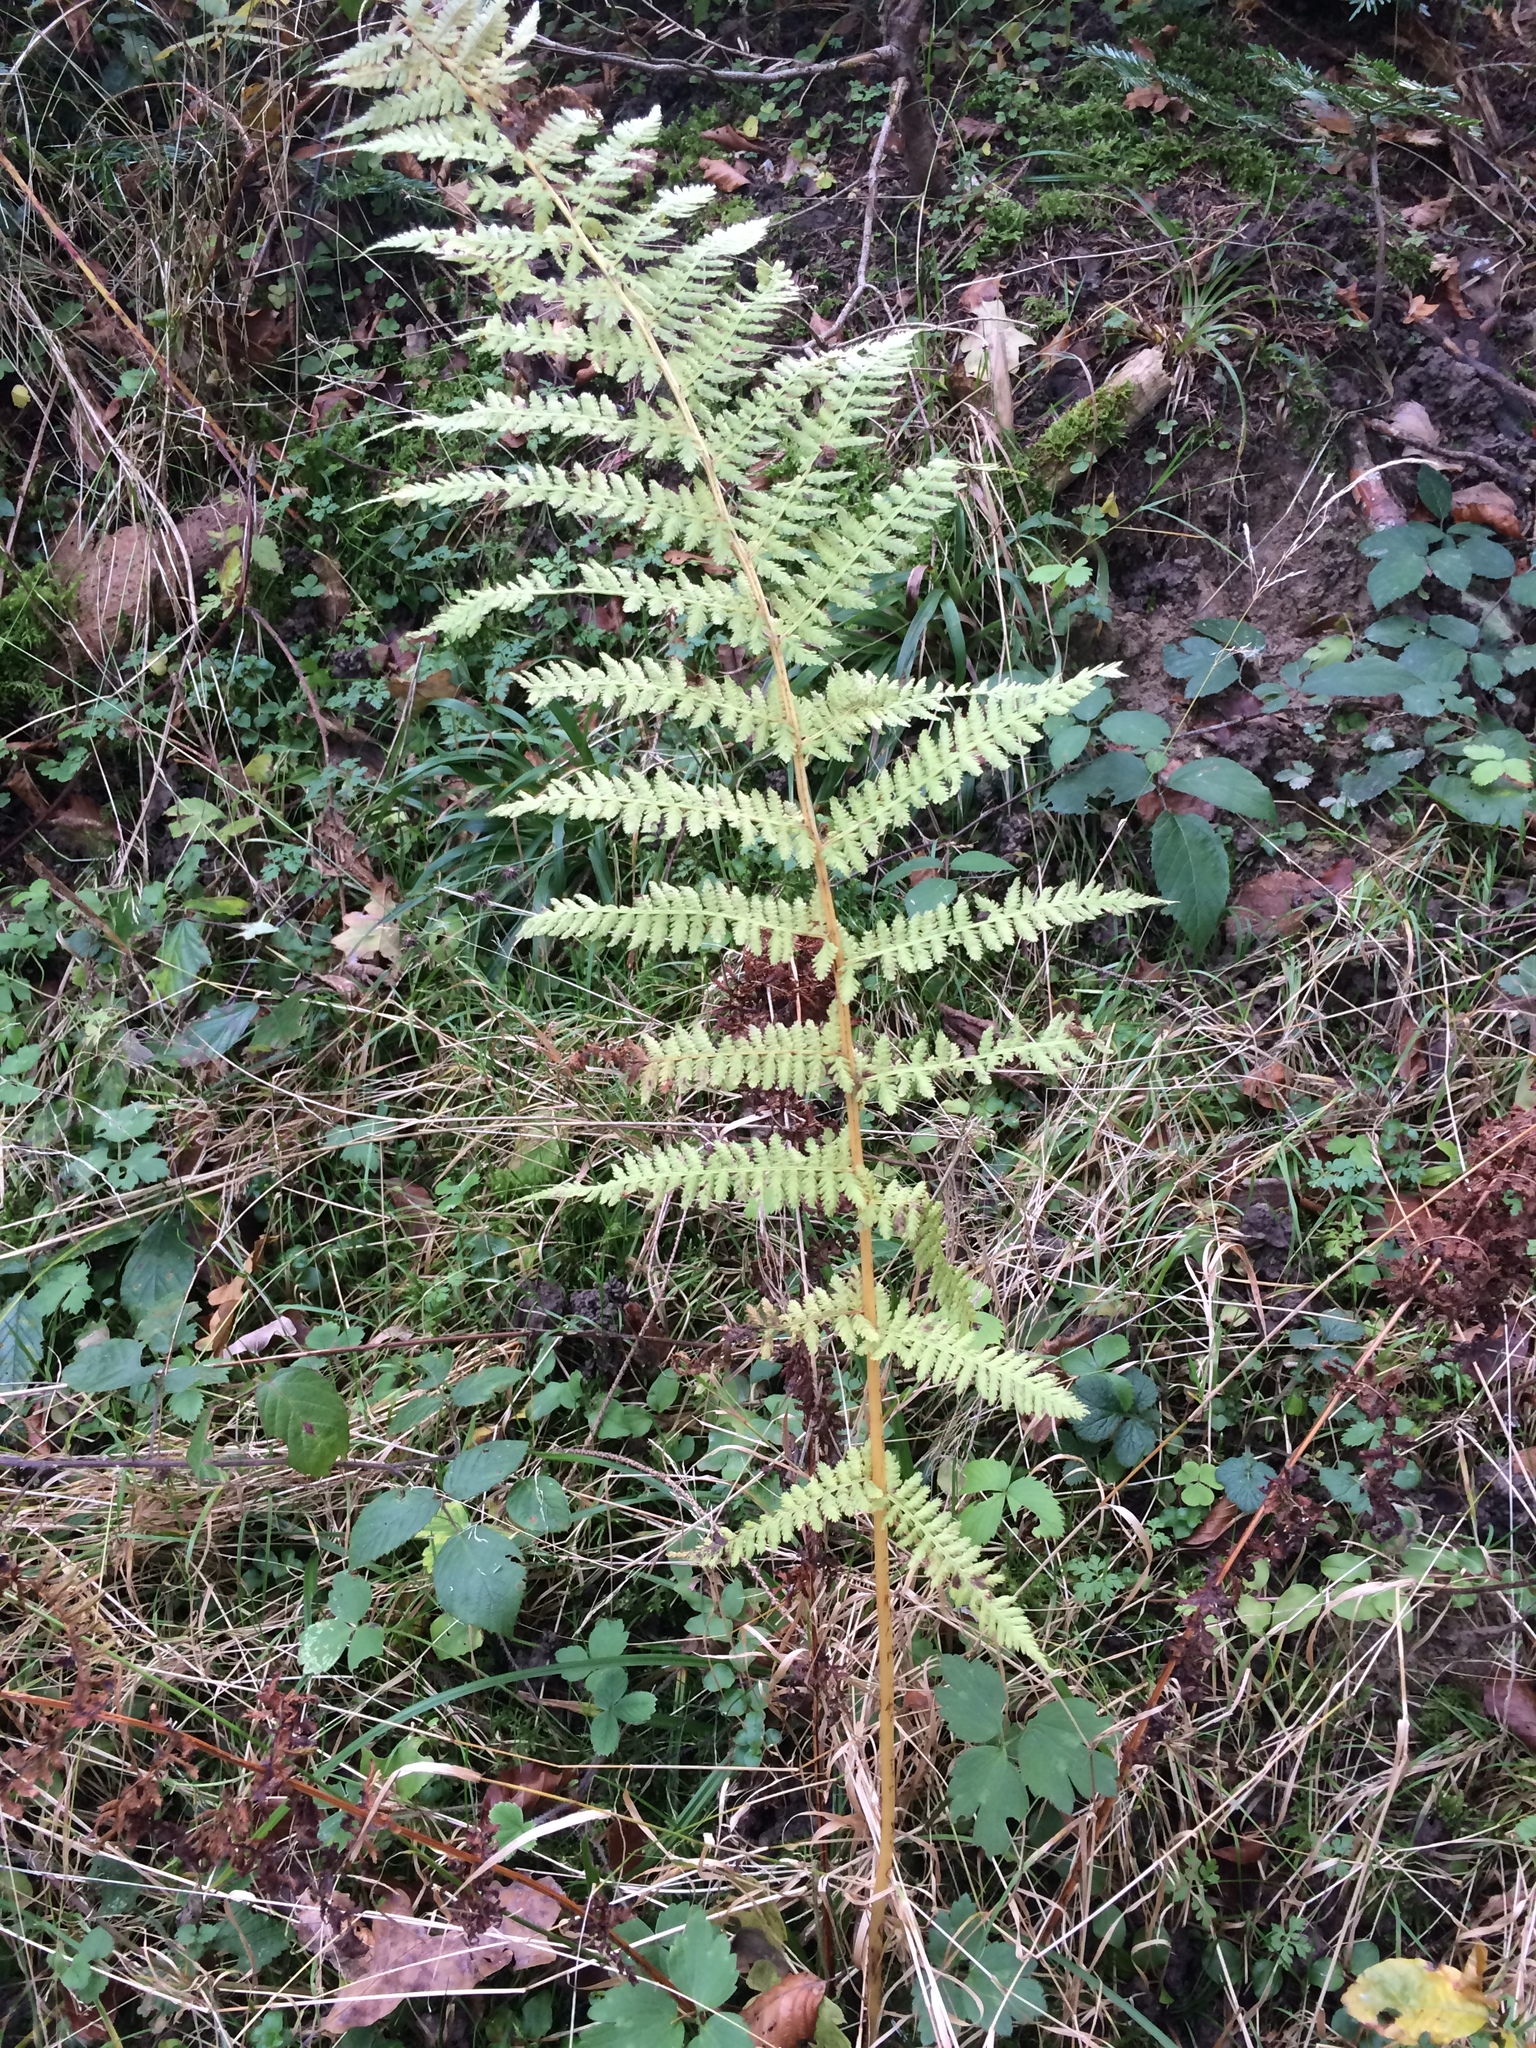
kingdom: Plantae
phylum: Tracheophyta
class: Polypodiopsida
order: Polypodiales
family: Athyriaceae
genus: Athyrium
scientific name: Athyrium filix-femina
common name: Lady fern
